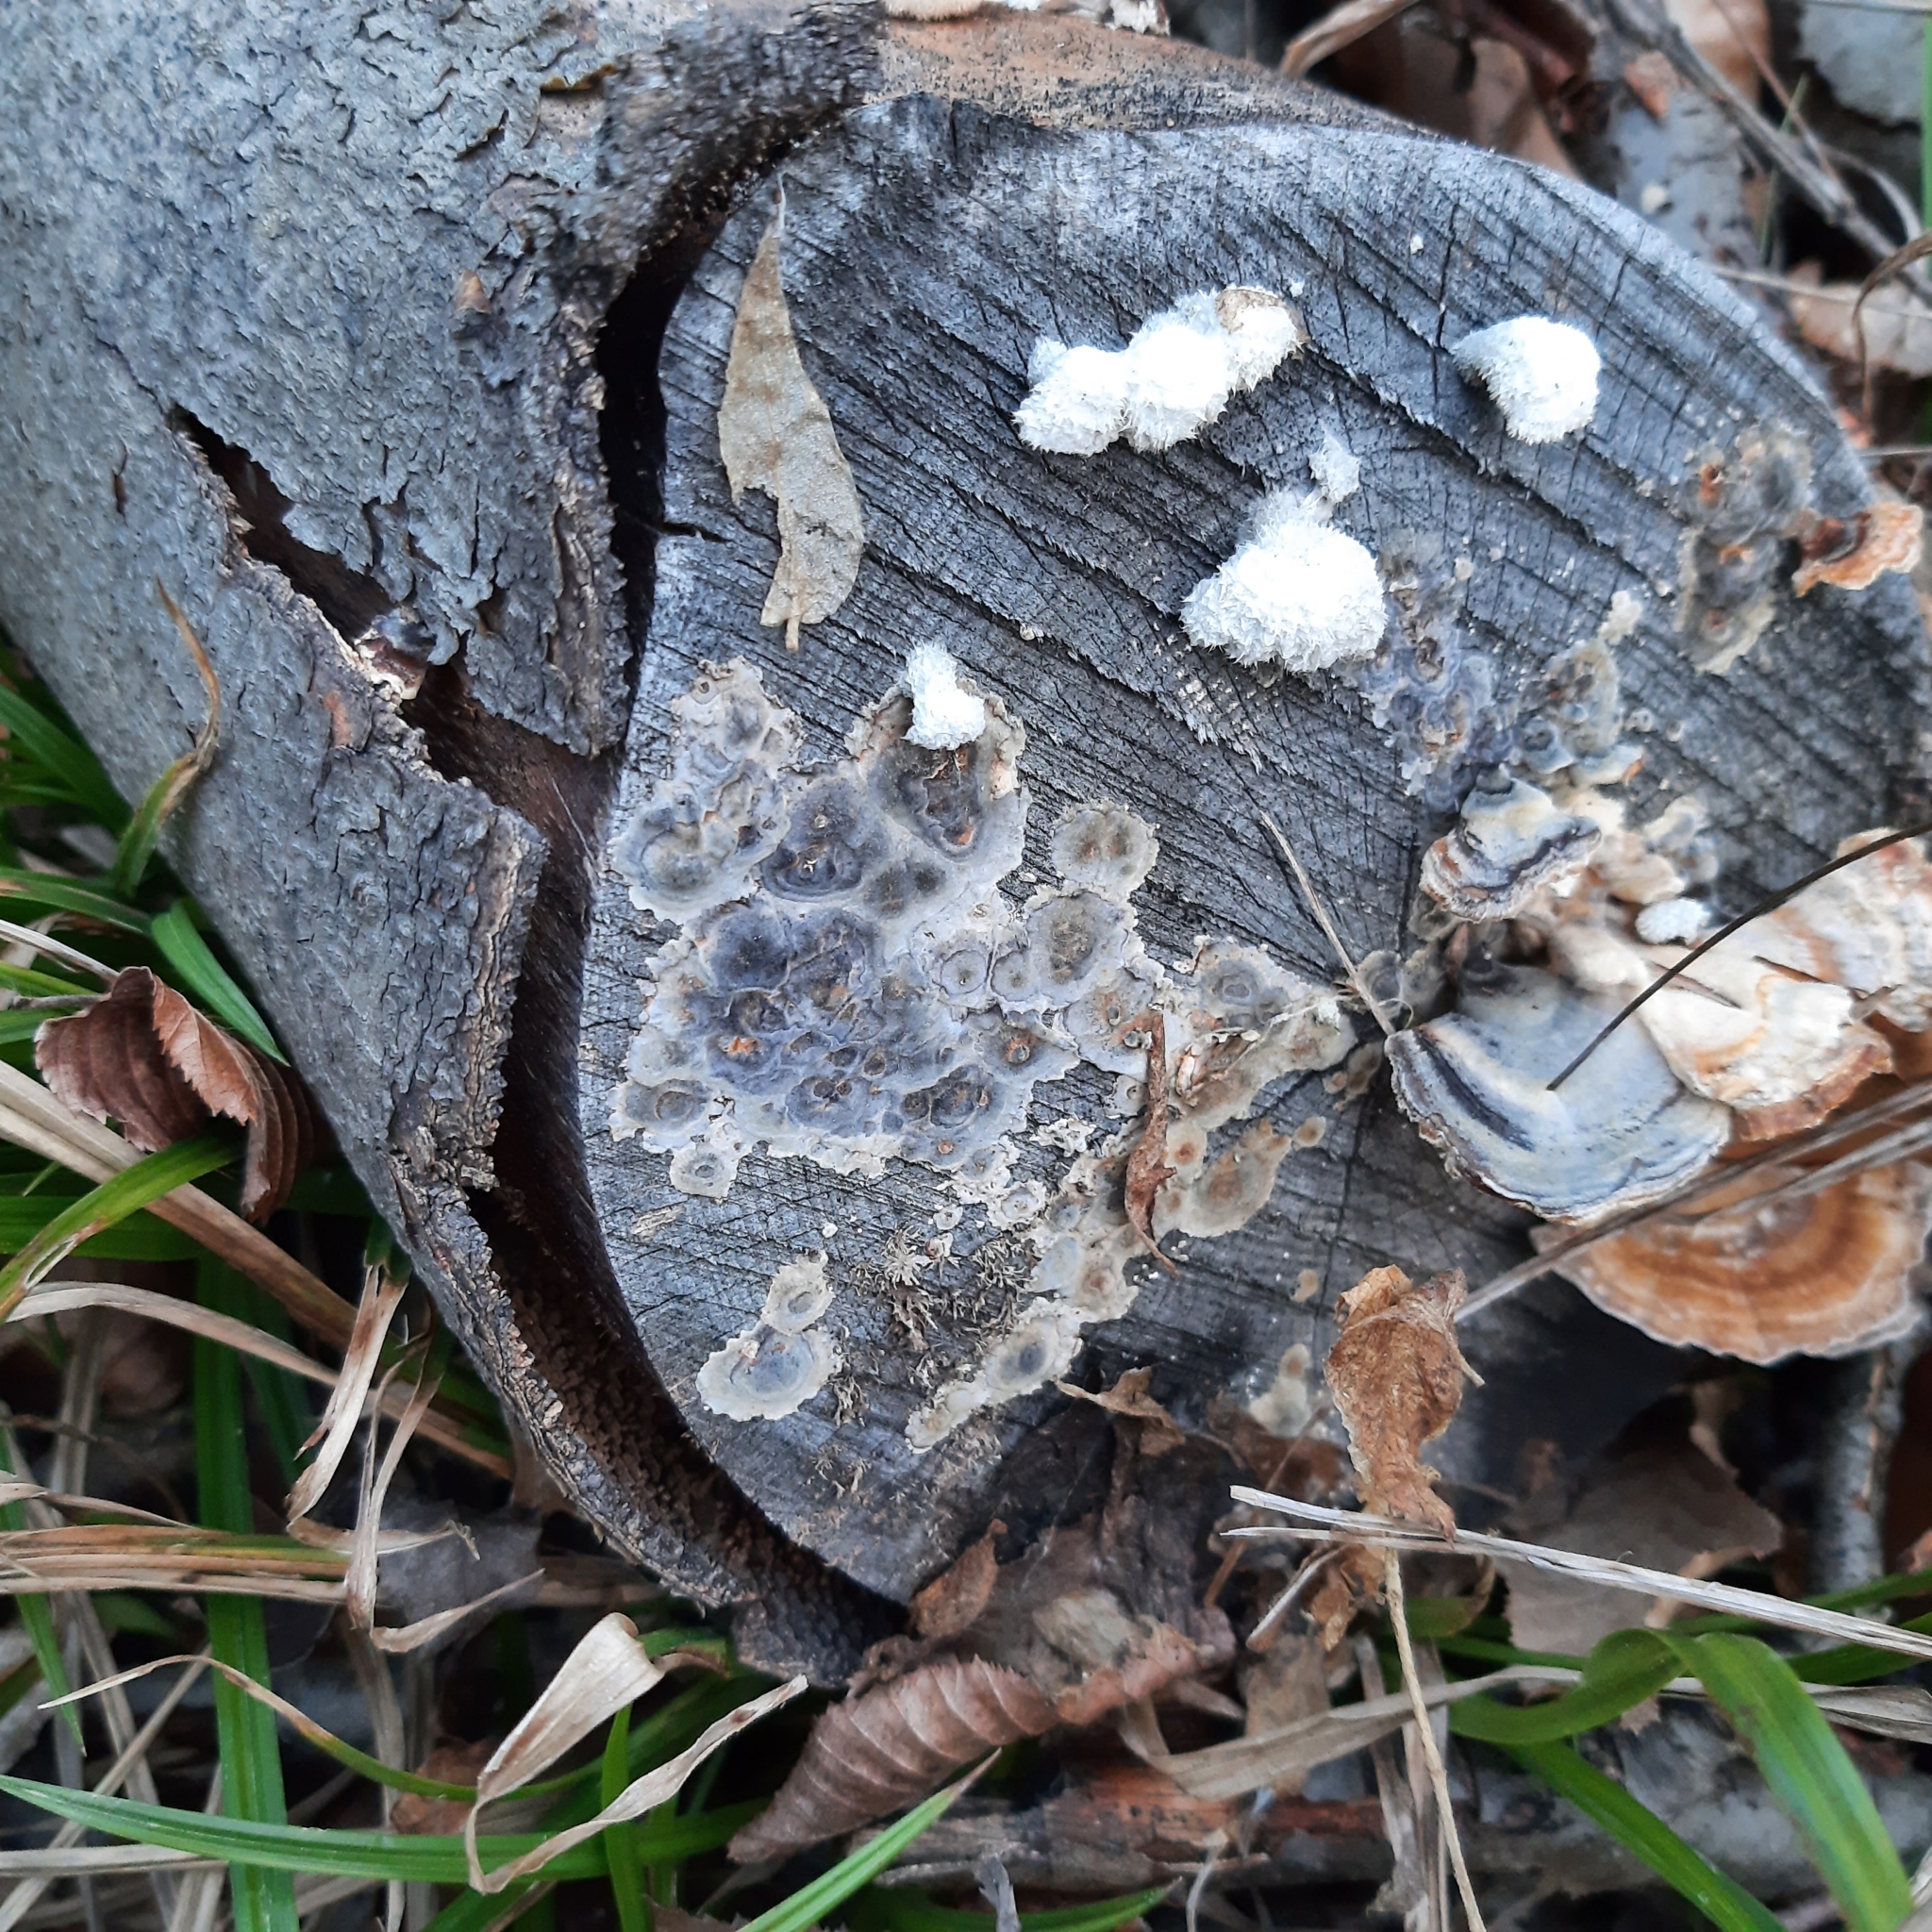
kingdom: Fungi
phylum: Basidiomycota
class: Agaricomycetes
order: Polyporales
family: Polyporaceae
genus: Trametes
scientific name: Trametes versicolor
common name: Turkeytail
